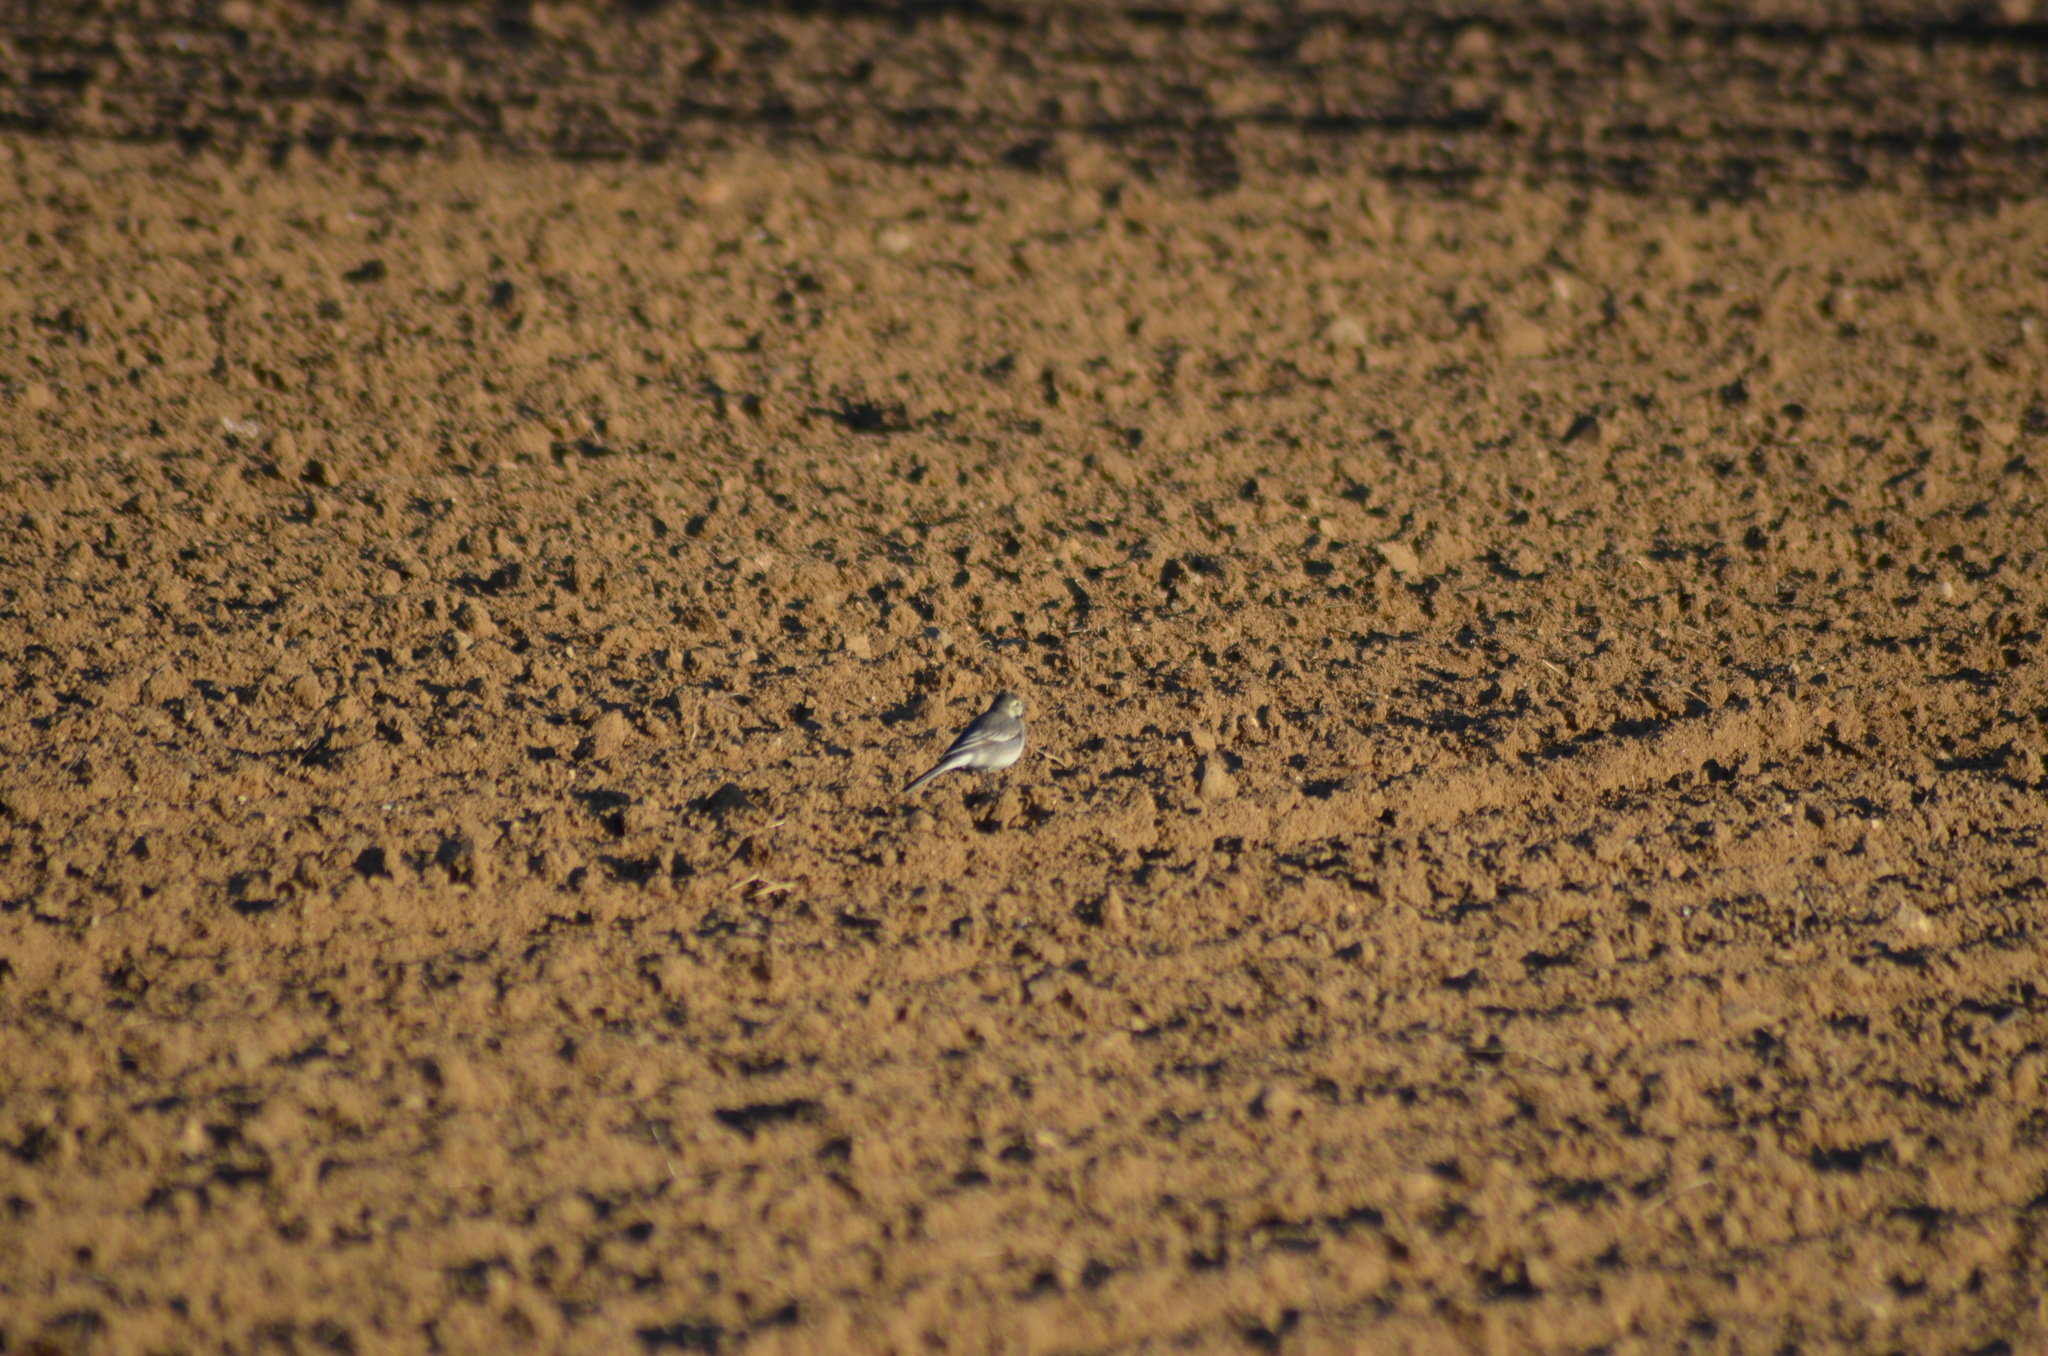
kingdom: Animalia
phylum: Chordata
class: Aves
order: Passeriformes
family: Motacillidae
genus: Motacilla
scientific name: Motacilla alba
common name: White wagtail
